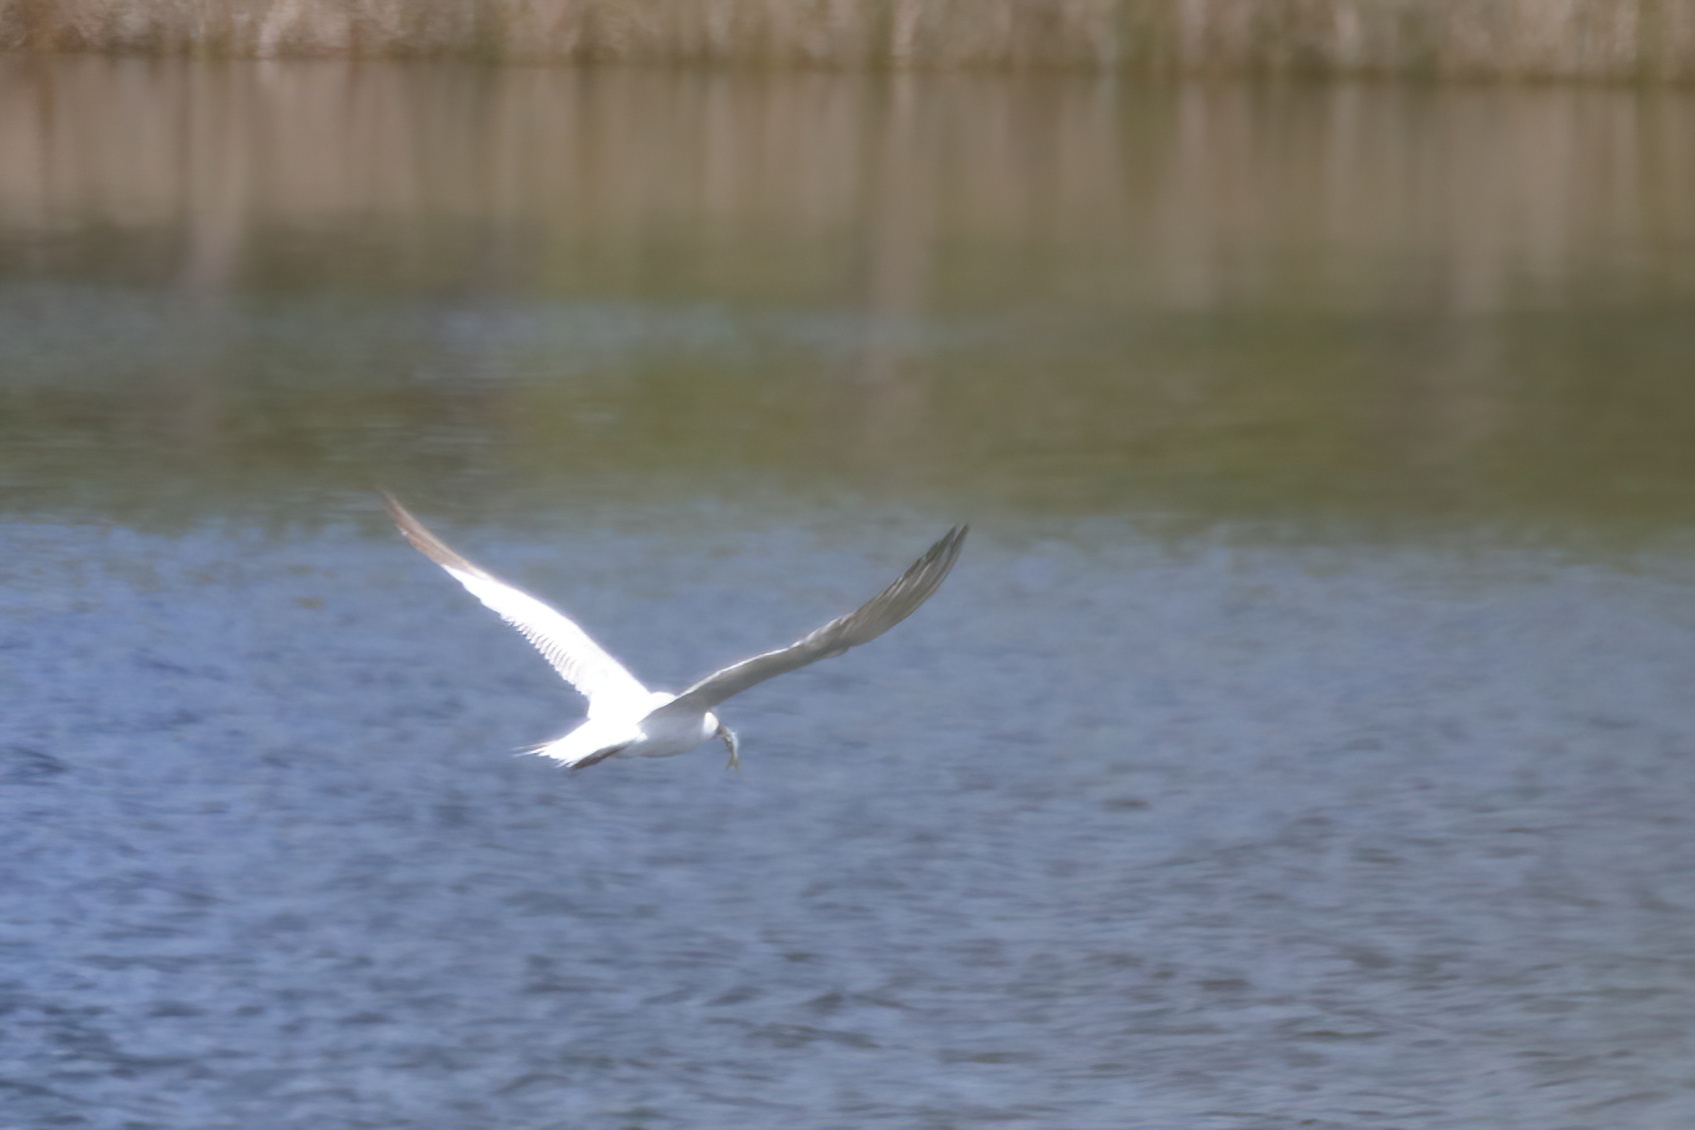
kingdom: Animalia
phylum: Chordata
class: Aves
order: Charadriiformes
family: Laridae
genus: Thalasseus
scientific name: Thalasseus maximus
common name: Royal tern
